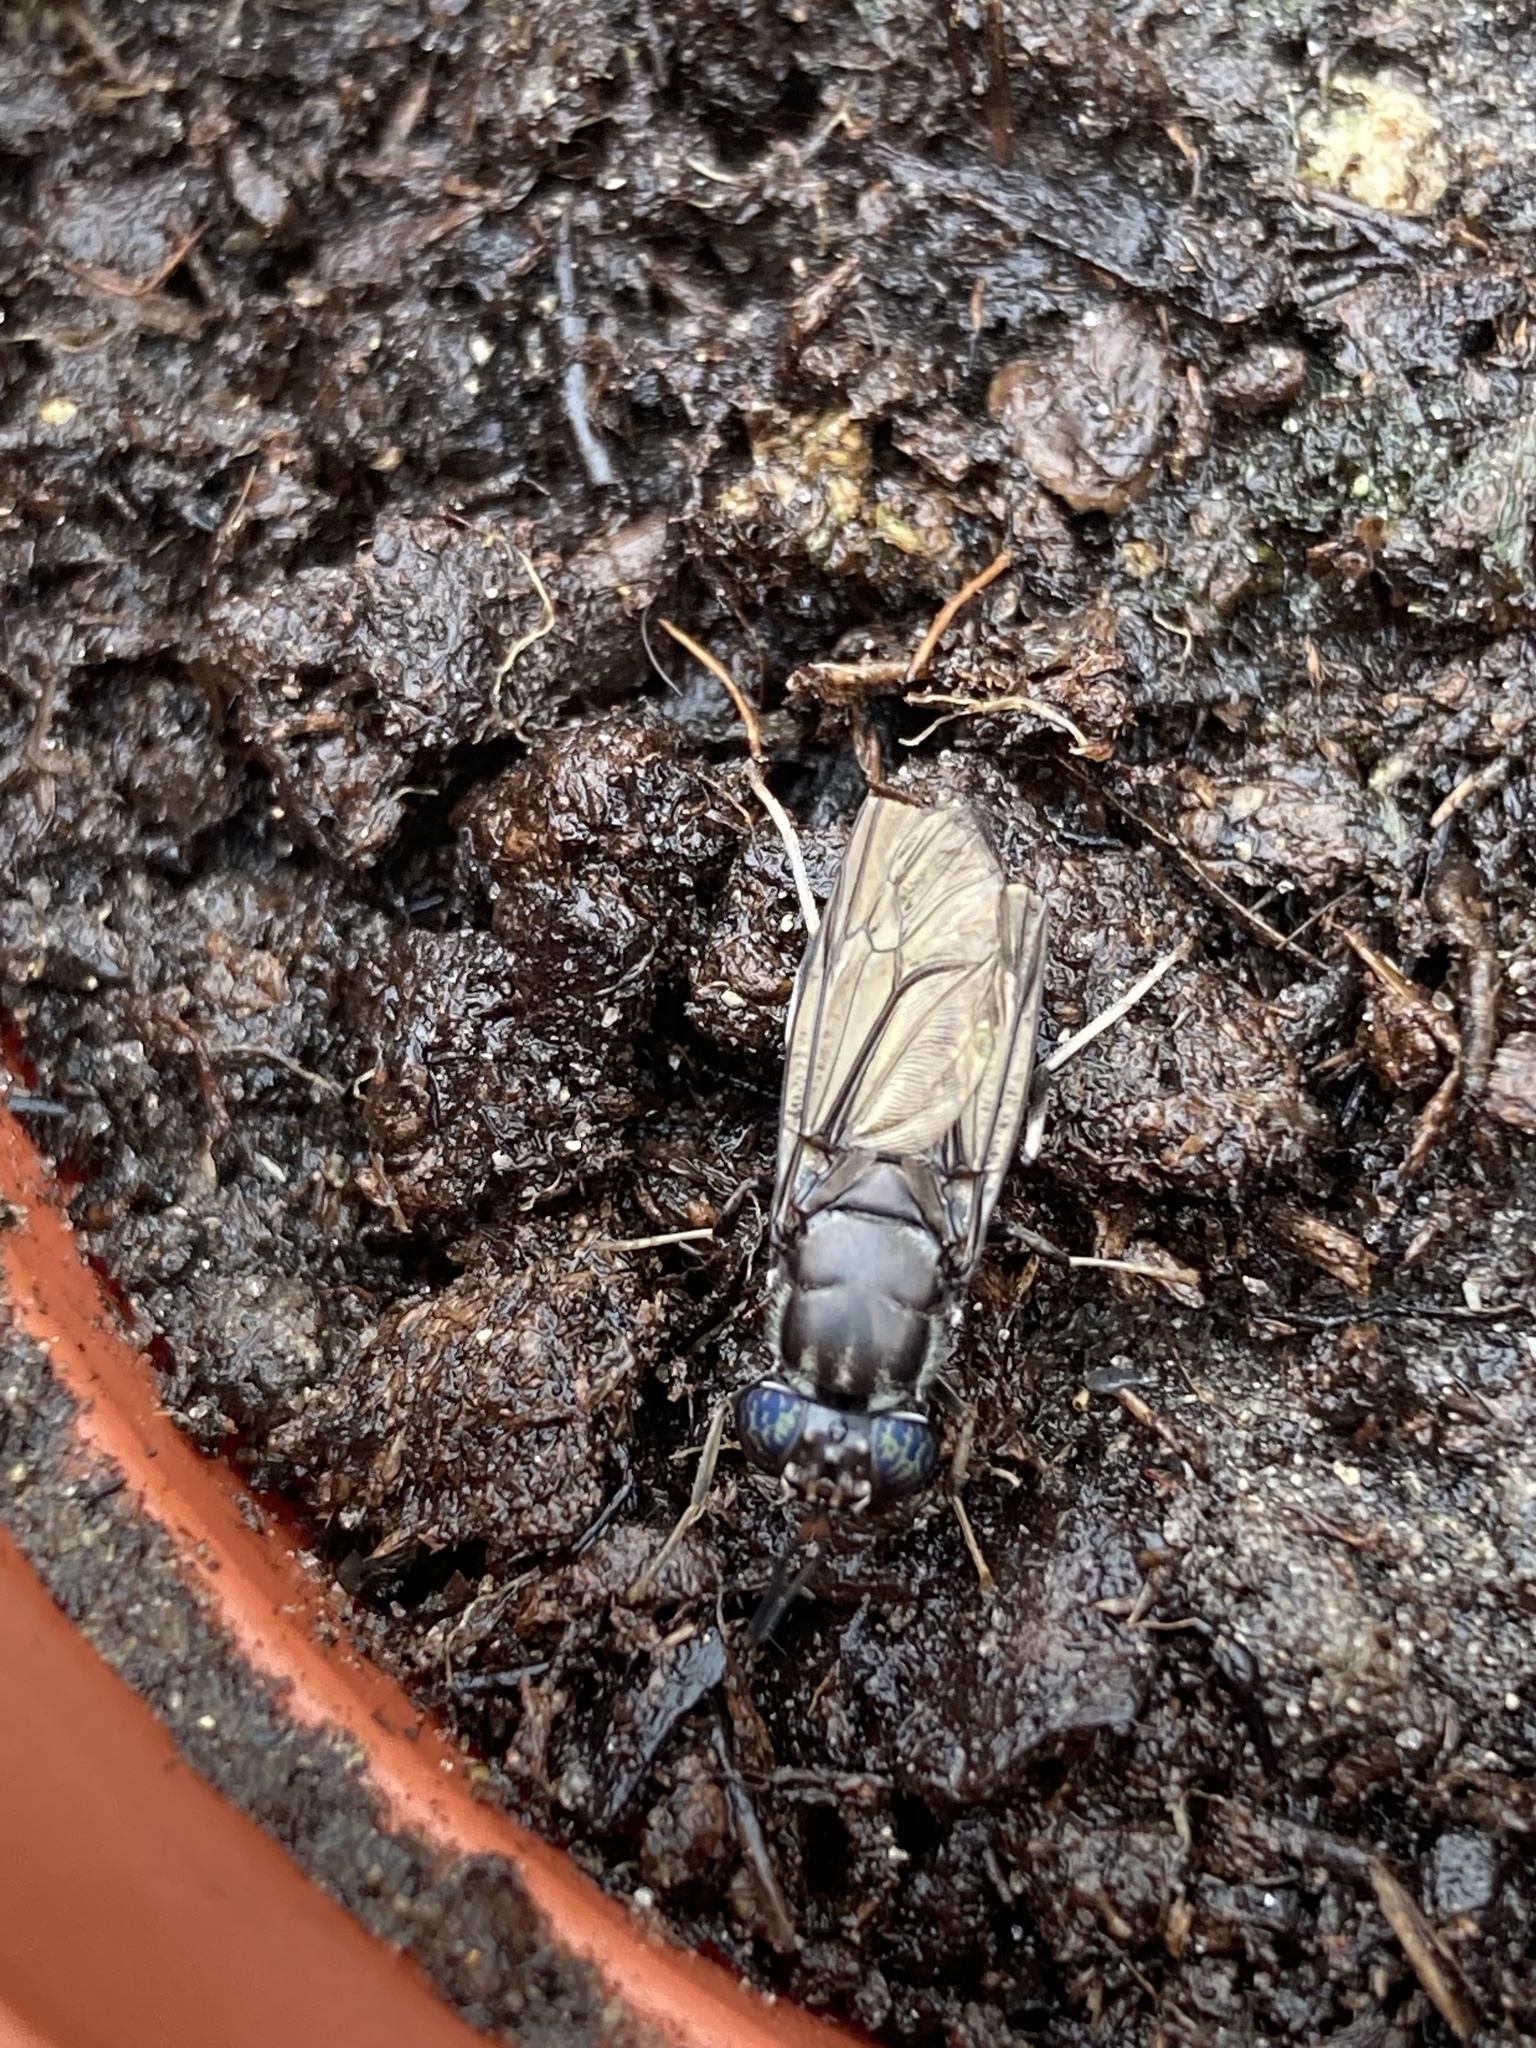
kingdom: Animalia
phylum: Arthropoda
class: Insecta
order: Diptera
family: Stratiomyidae
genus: Hermetia
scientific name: Hermetia illucens
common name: Black soldier fly
